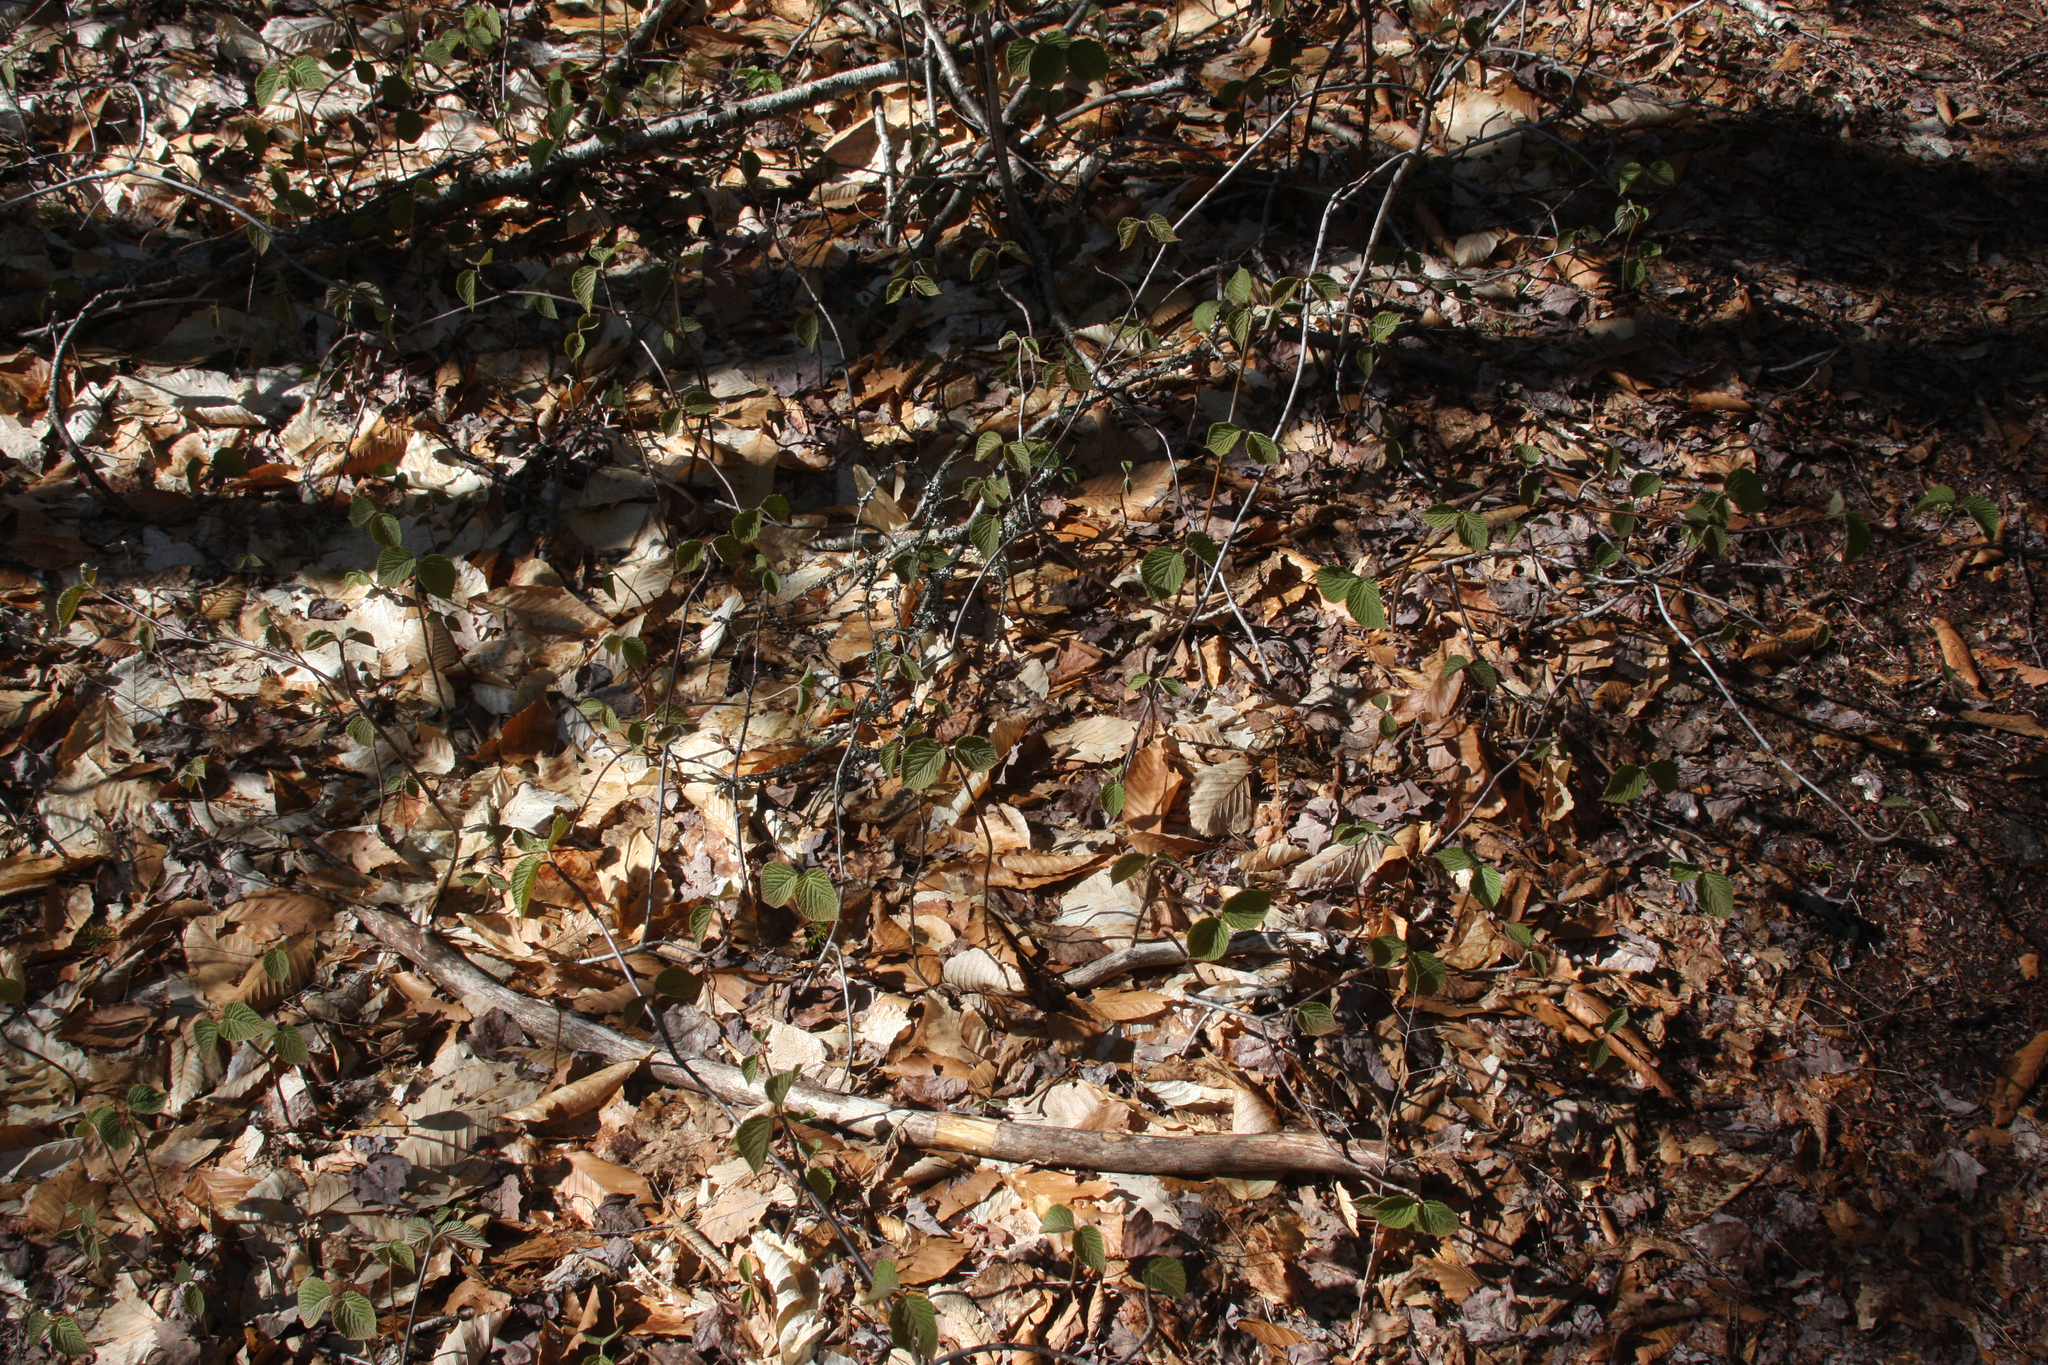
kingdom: Plantae
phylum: Tracheophyta
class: Magnoliopsida
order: Dipsacales
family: Viburnaceae
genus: Viburnum
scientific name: Viburnum lantanoides
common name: Hobblebush
